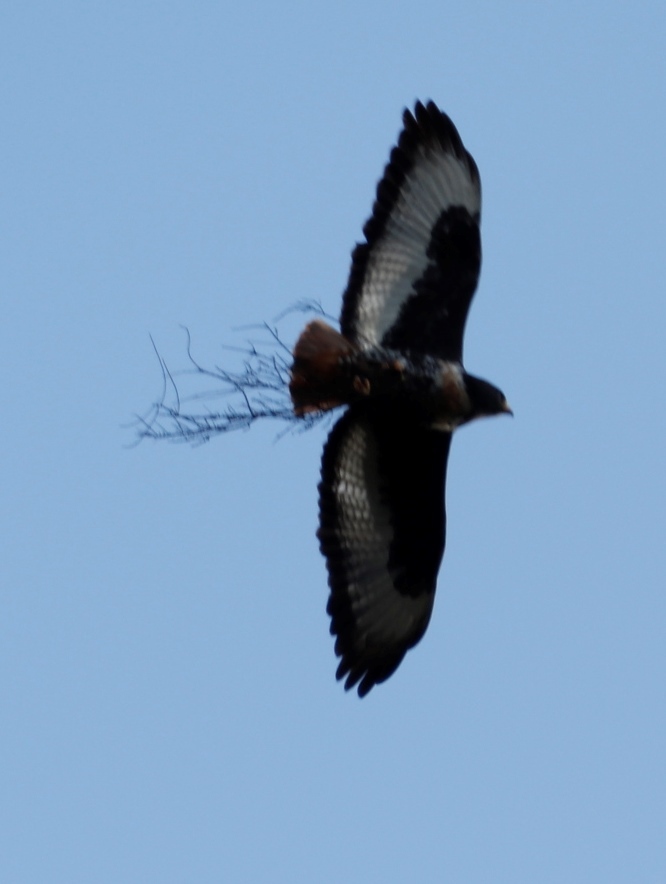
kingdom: Animalia
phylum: Chordata
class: Aves
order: Accipitriformes
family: Accipitridae
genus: Buteo
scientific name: Buteo rufofuscus
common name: Jackal buzzard
